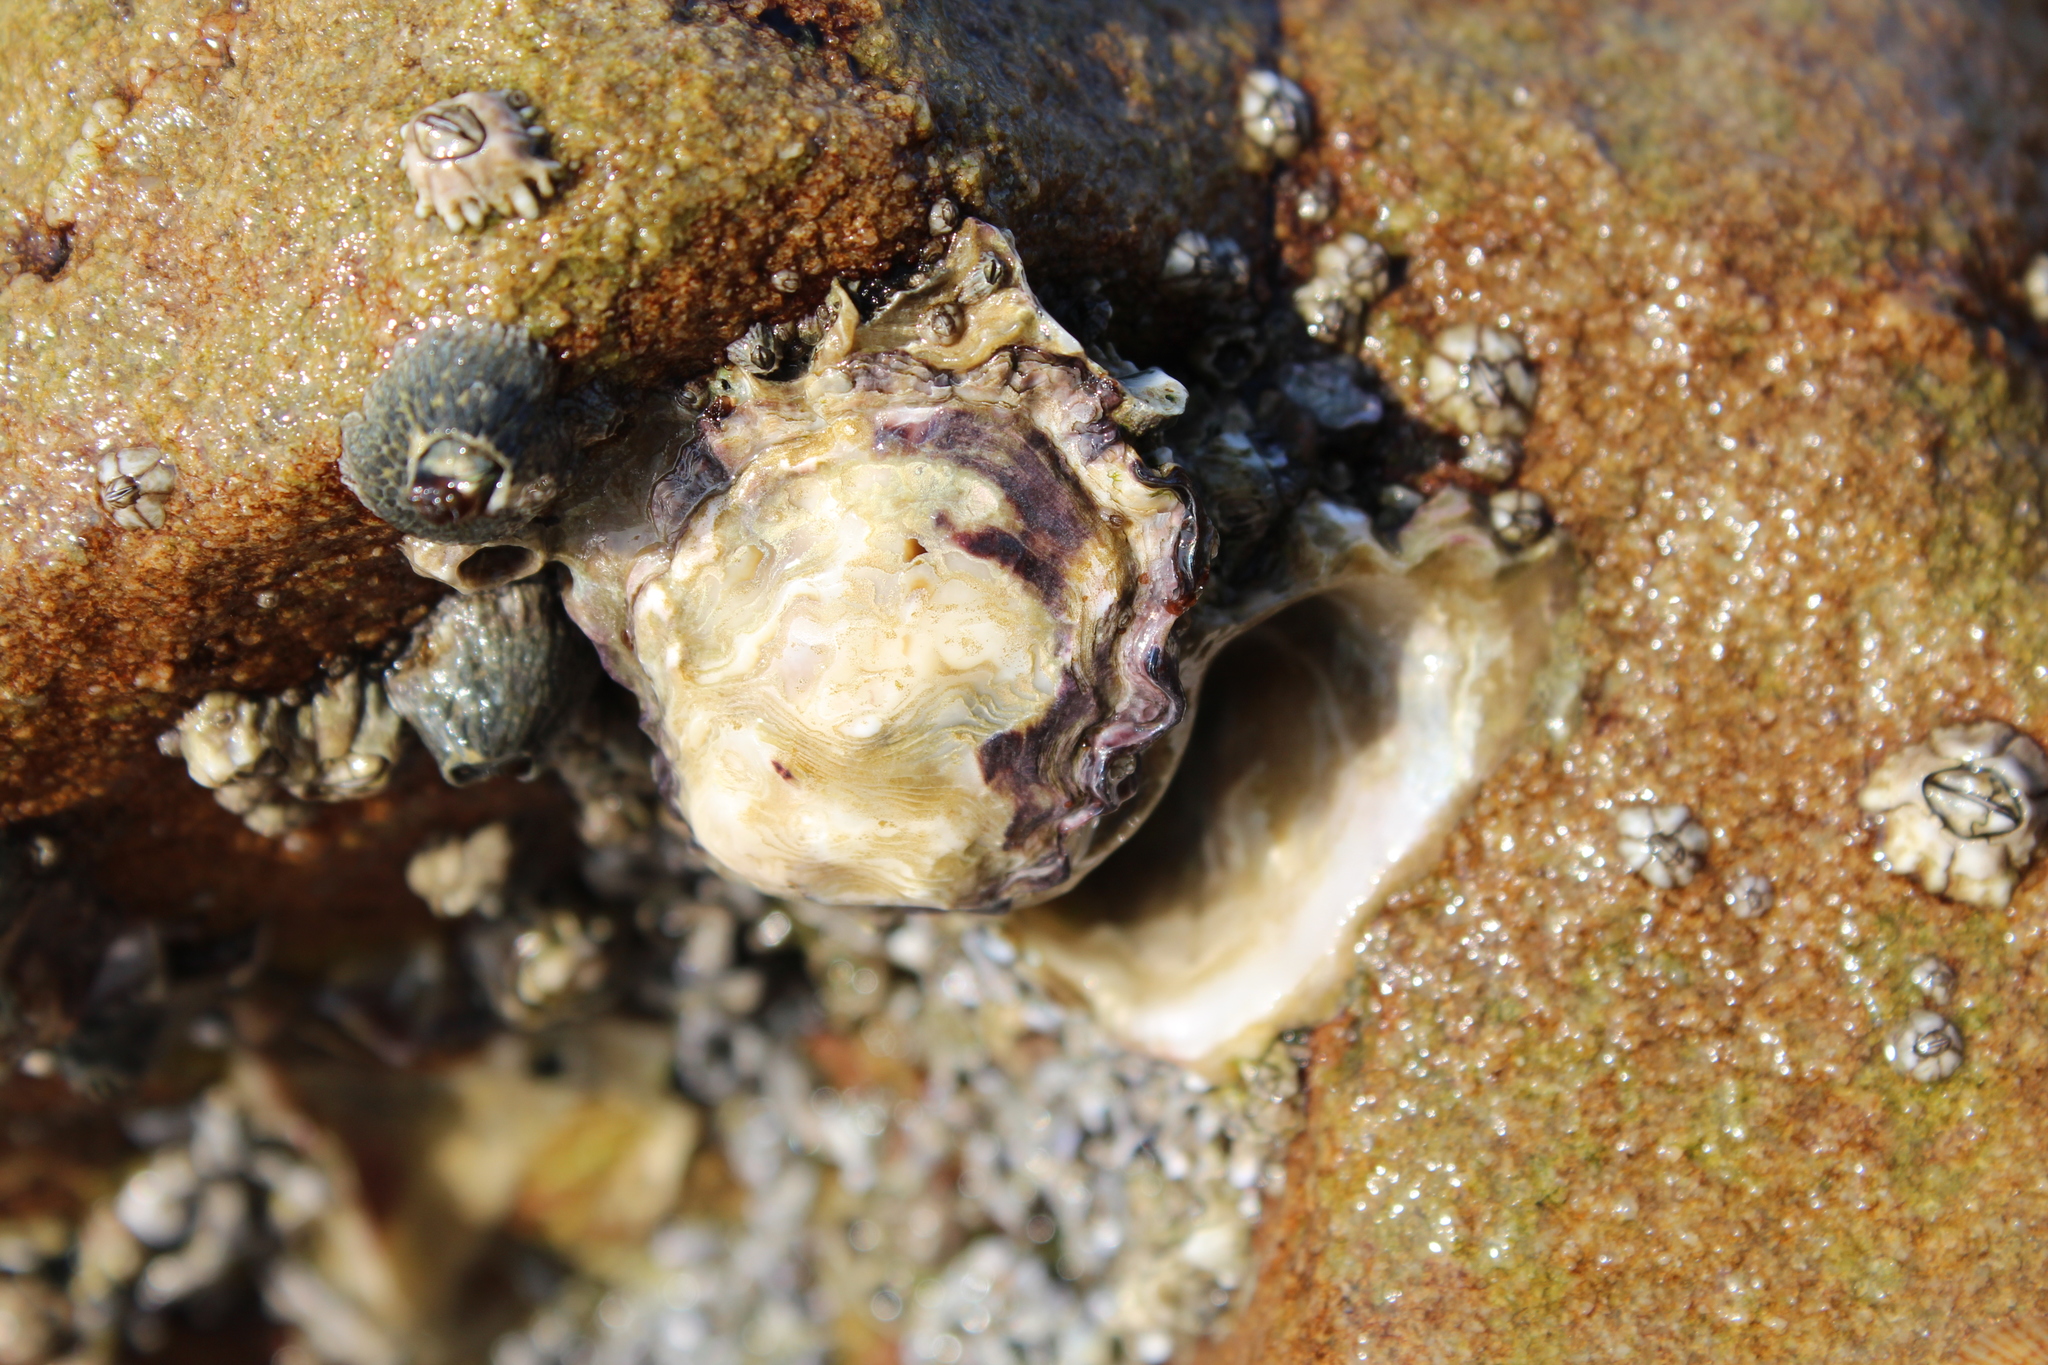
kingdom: Animalia
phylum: Mollusca
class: Bivalvia
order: Ostreida
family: Ostreidae
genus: Saccostrea
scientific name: Saccostrea cuccullata
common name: Natal rock oyster
